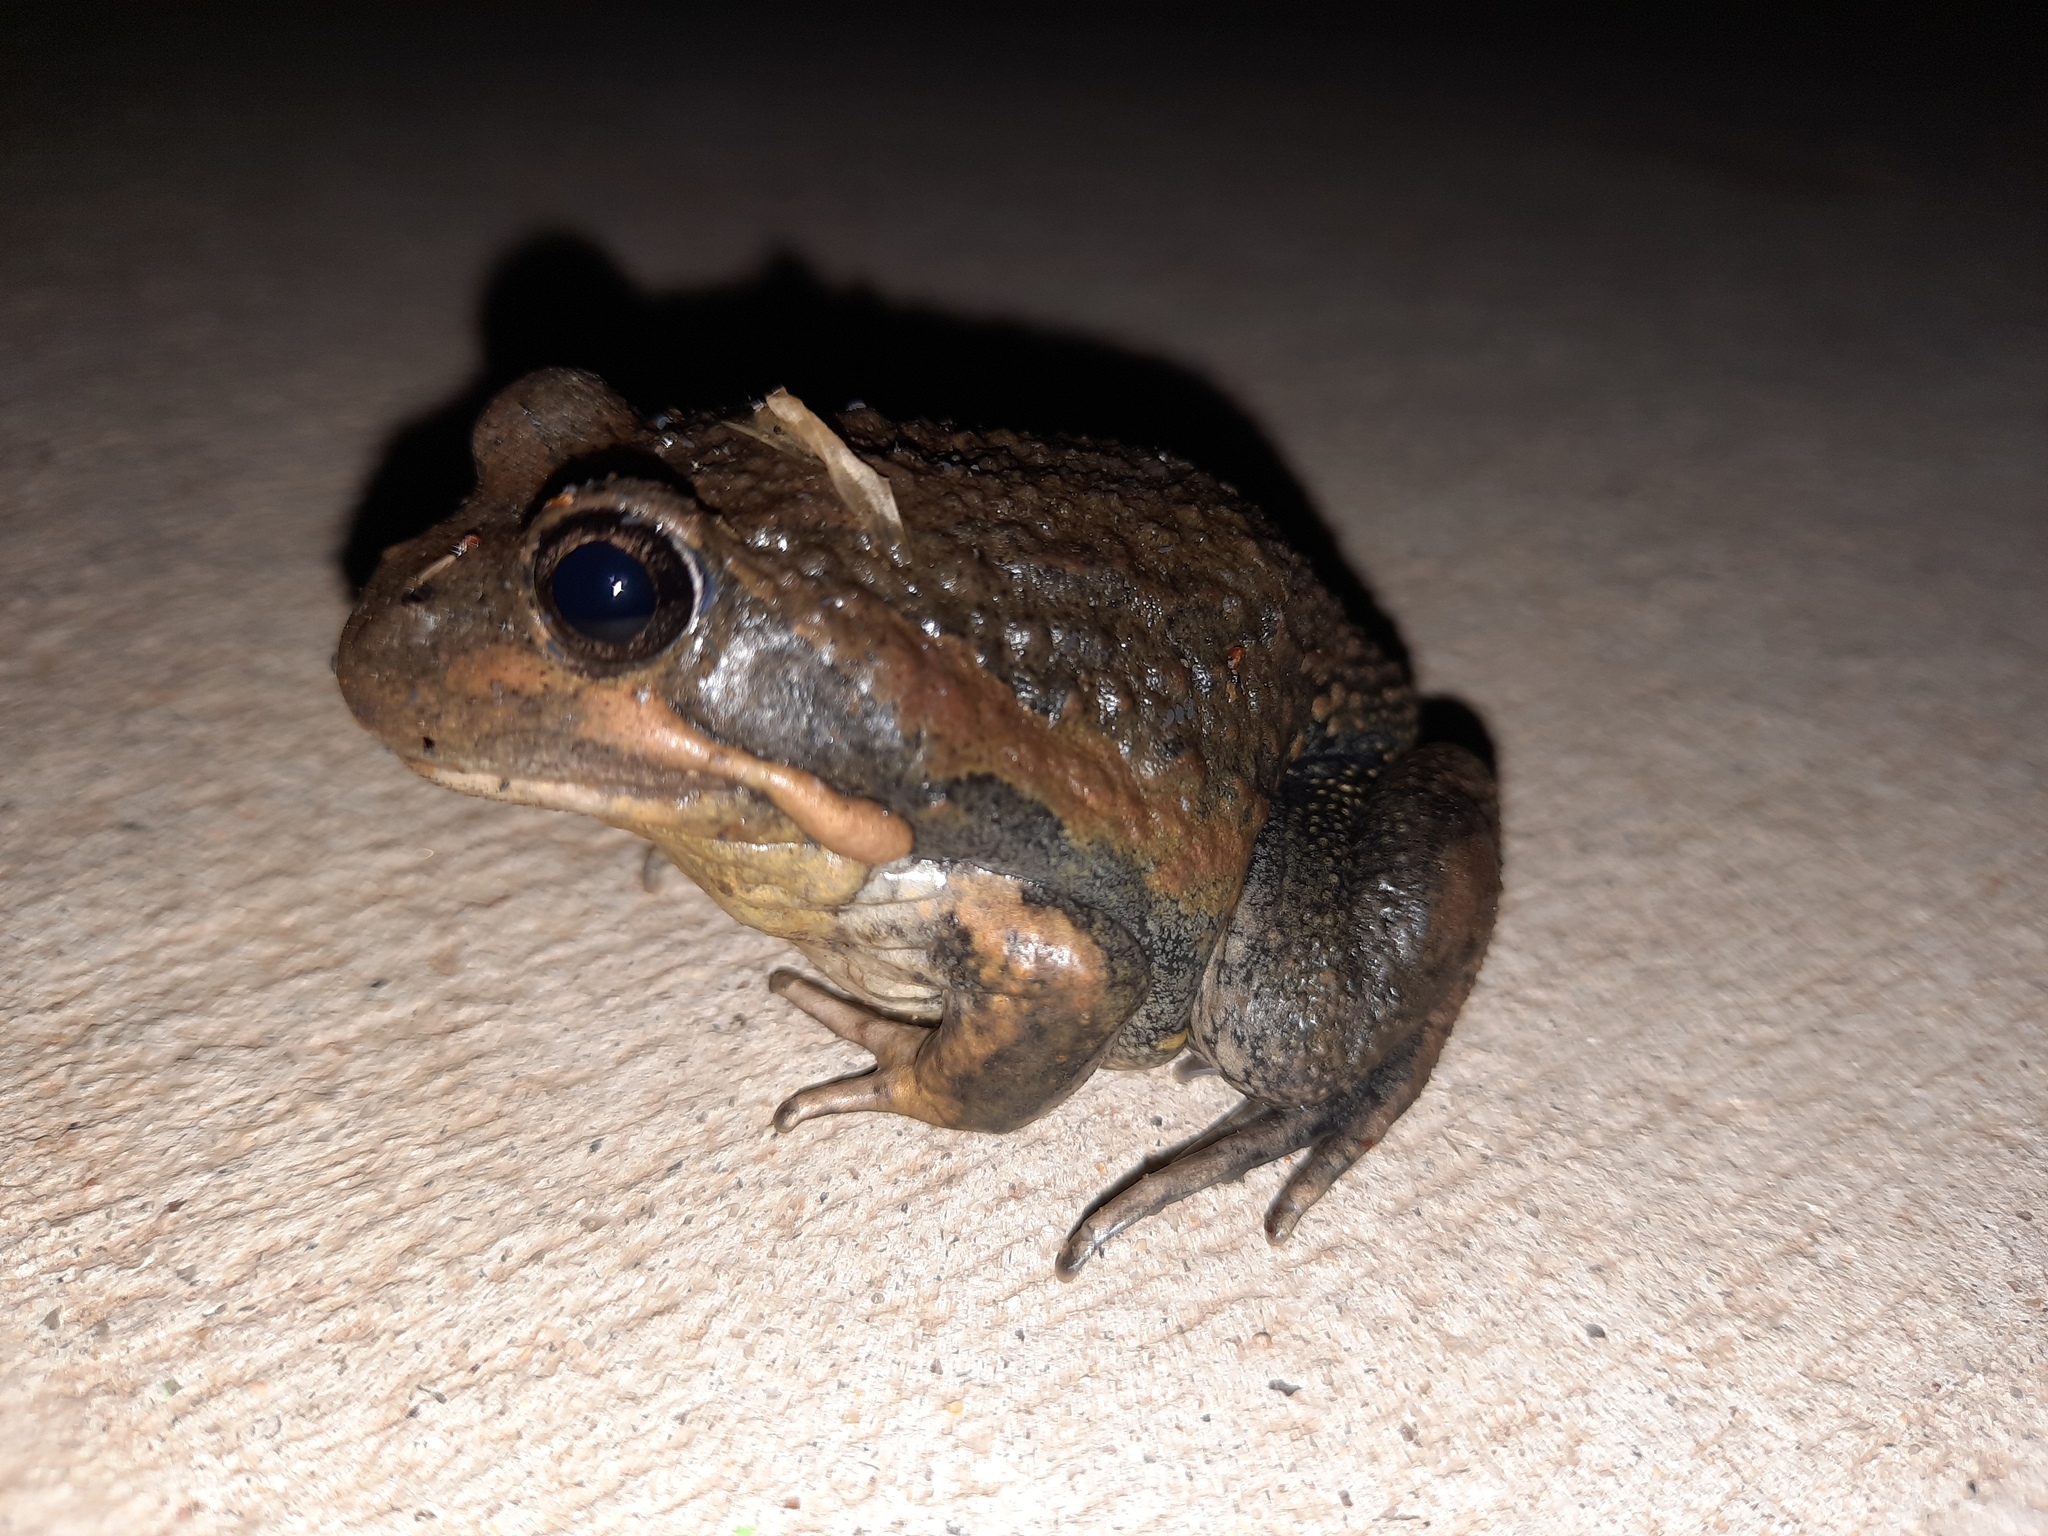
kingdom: Animalia
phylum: Chordata
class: Amphibia
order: Anura
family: Limnodynastidae
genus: Limnodynastes
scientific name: Limnodynastes dumerilii
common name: Banjo frog
